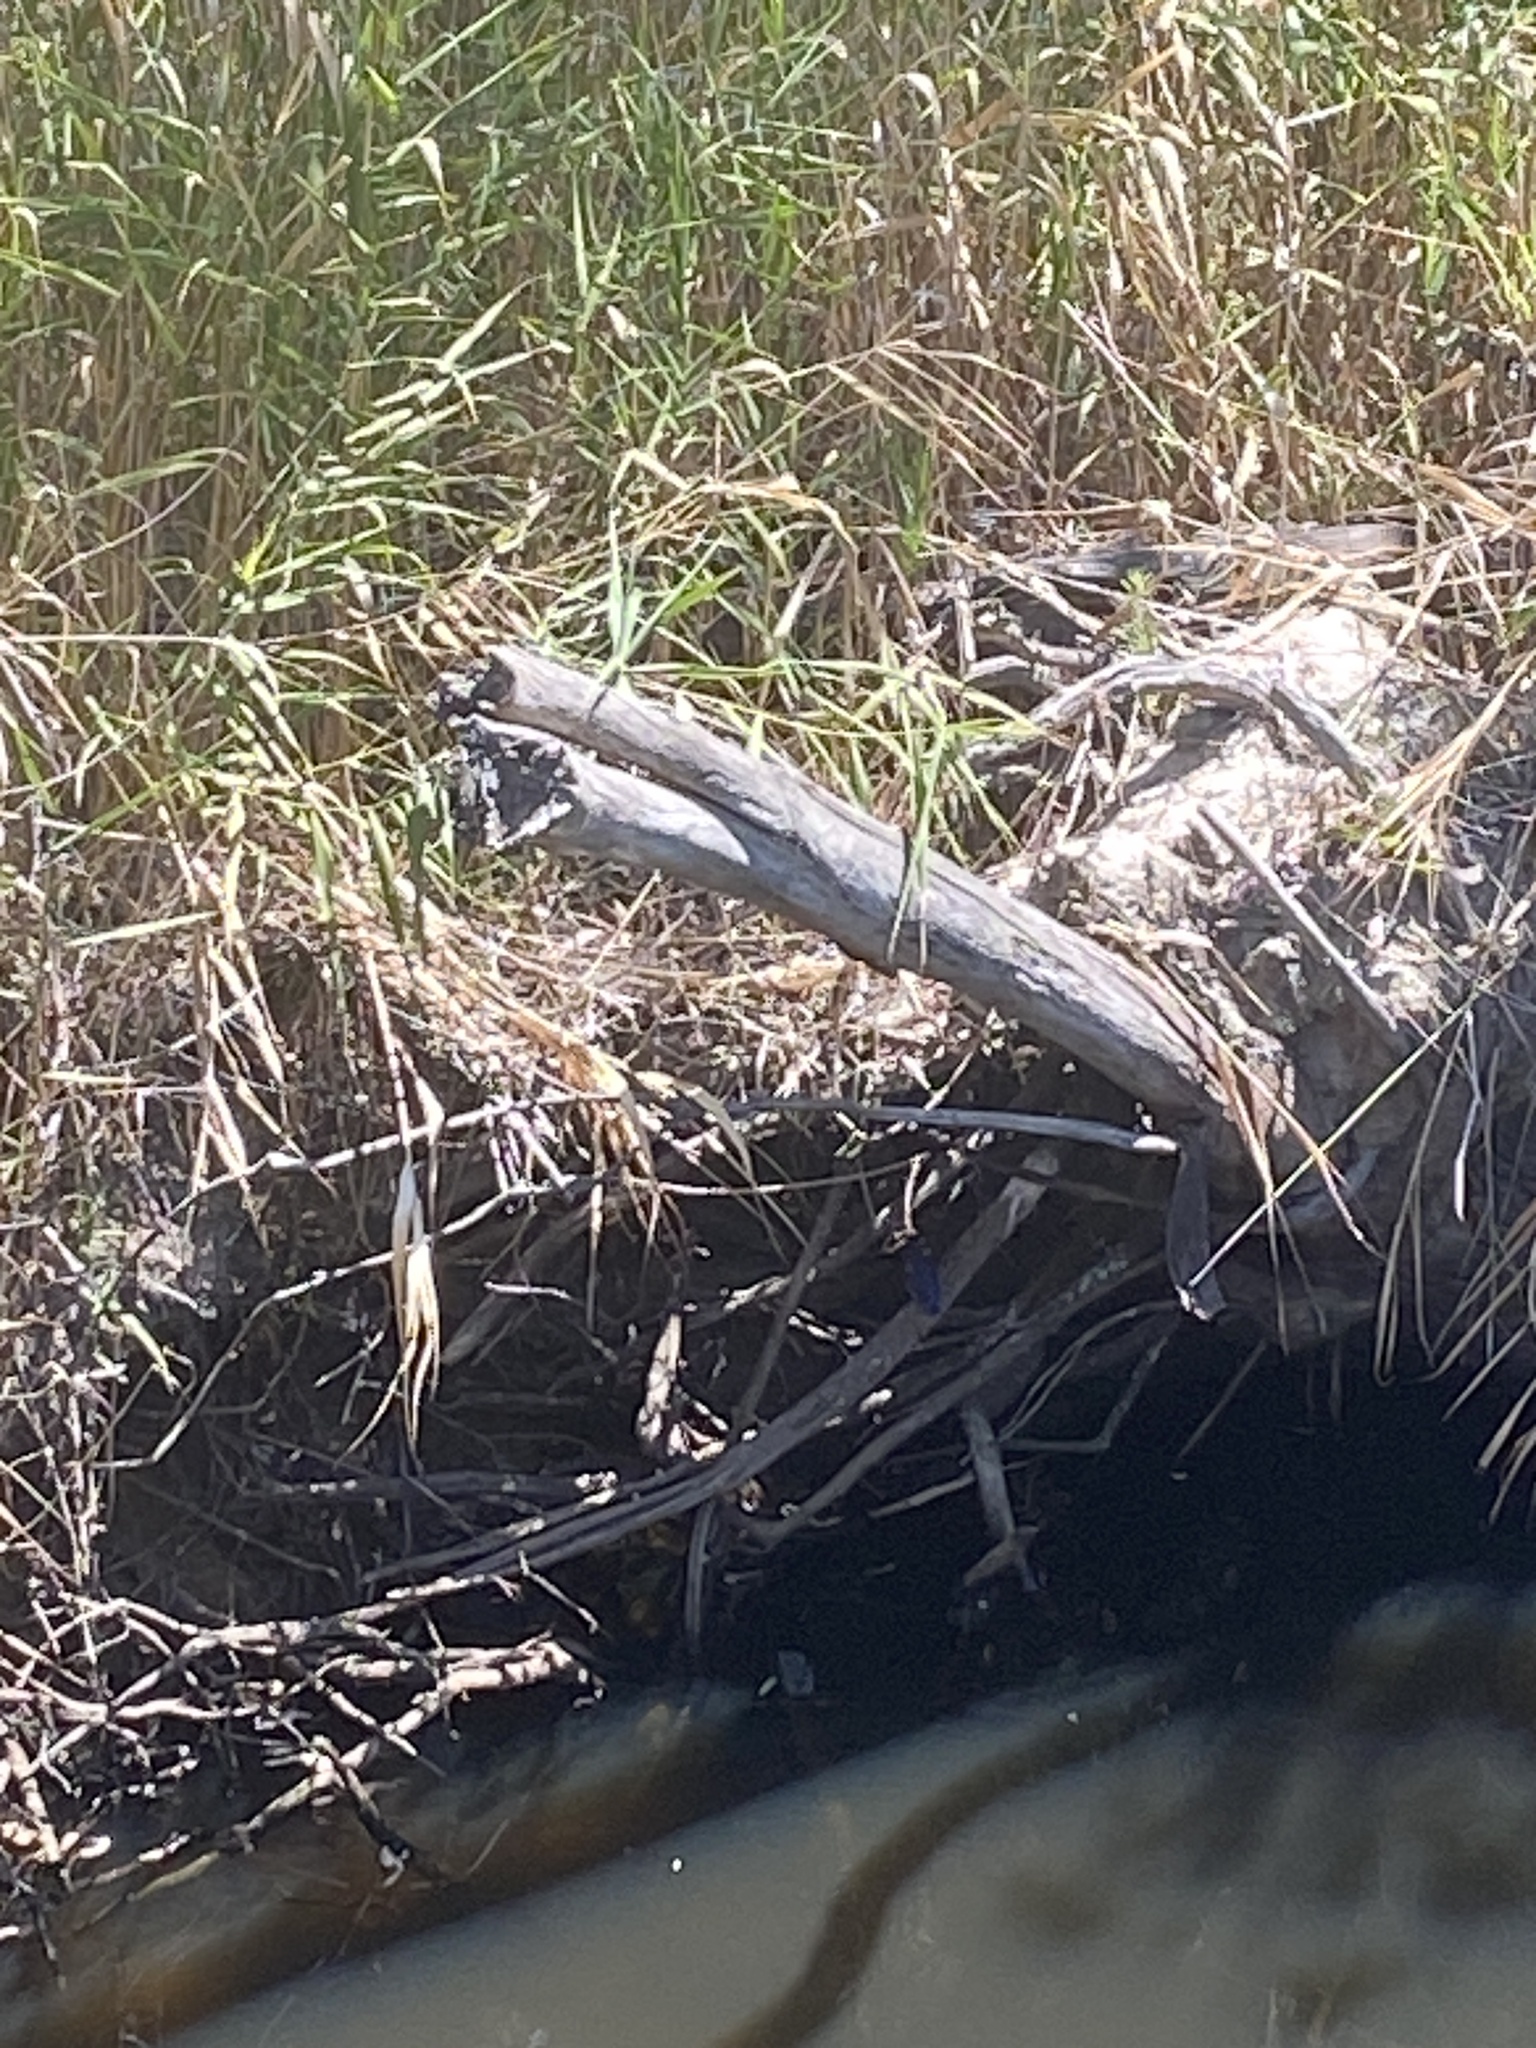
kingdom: Animalia
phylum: Chordata
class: Aves
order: Coraciiformes
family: Alcedinidae
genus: Ceyx
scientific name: Ceyx azureus
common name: Azure kingfisher
